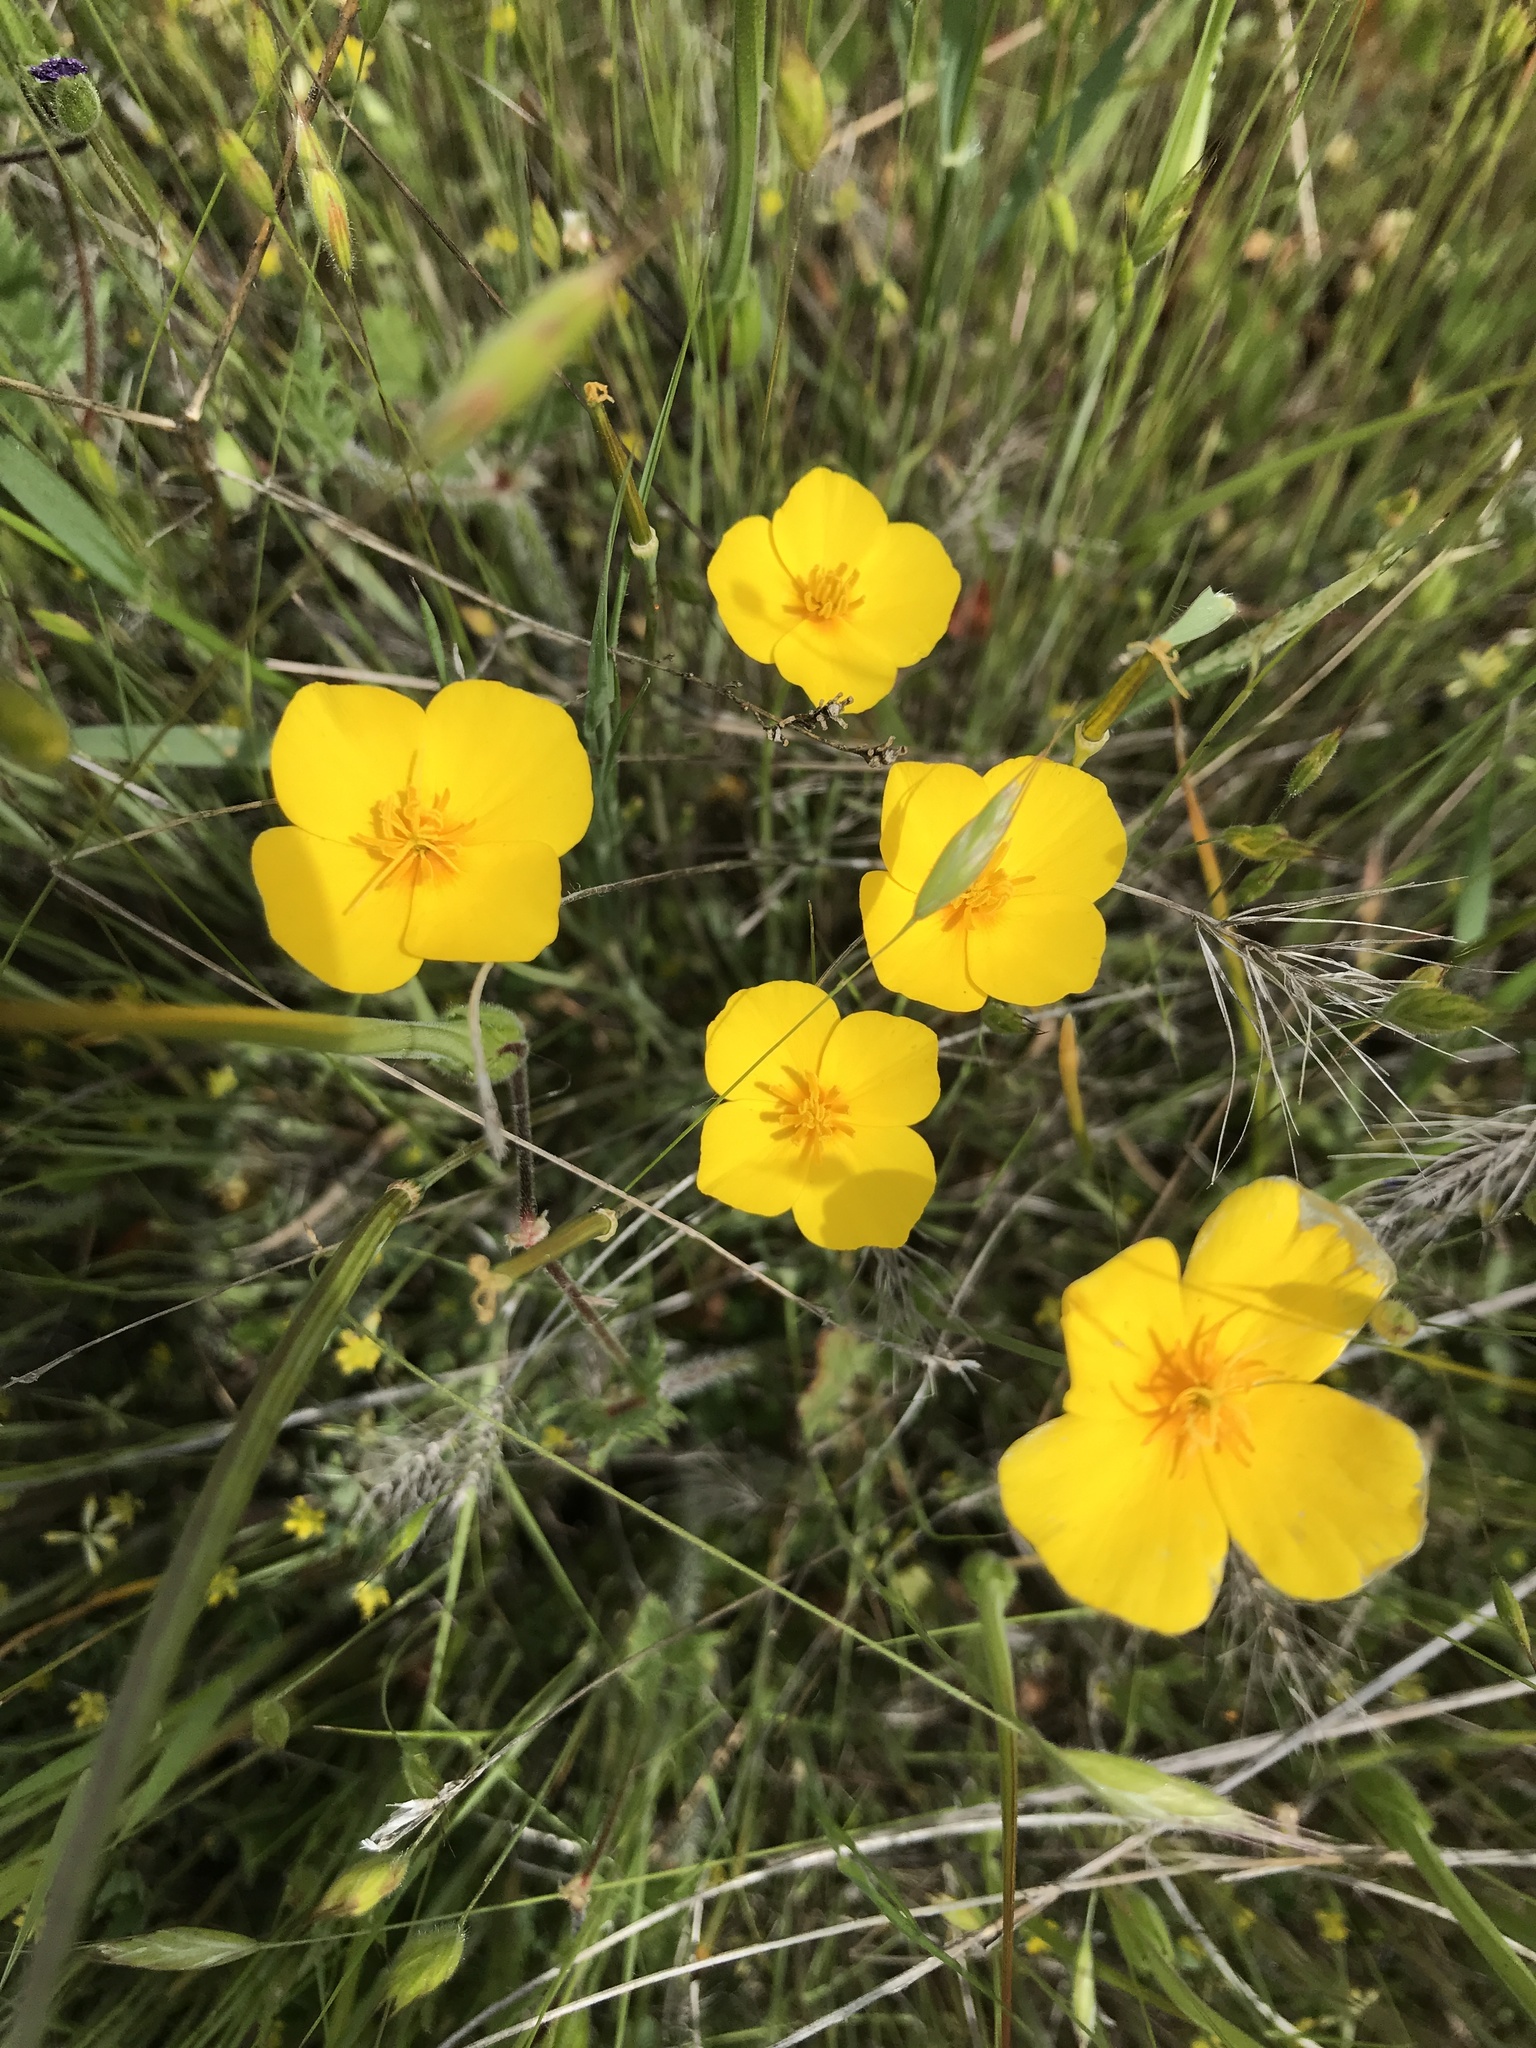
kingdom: Plantae
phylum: Tracheophyta
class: Magnoliopsida
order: Ranunculales
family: Papaveraceae
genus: Eschscholzia
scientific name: Eschscholzia lobbii
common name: Frying-pans
